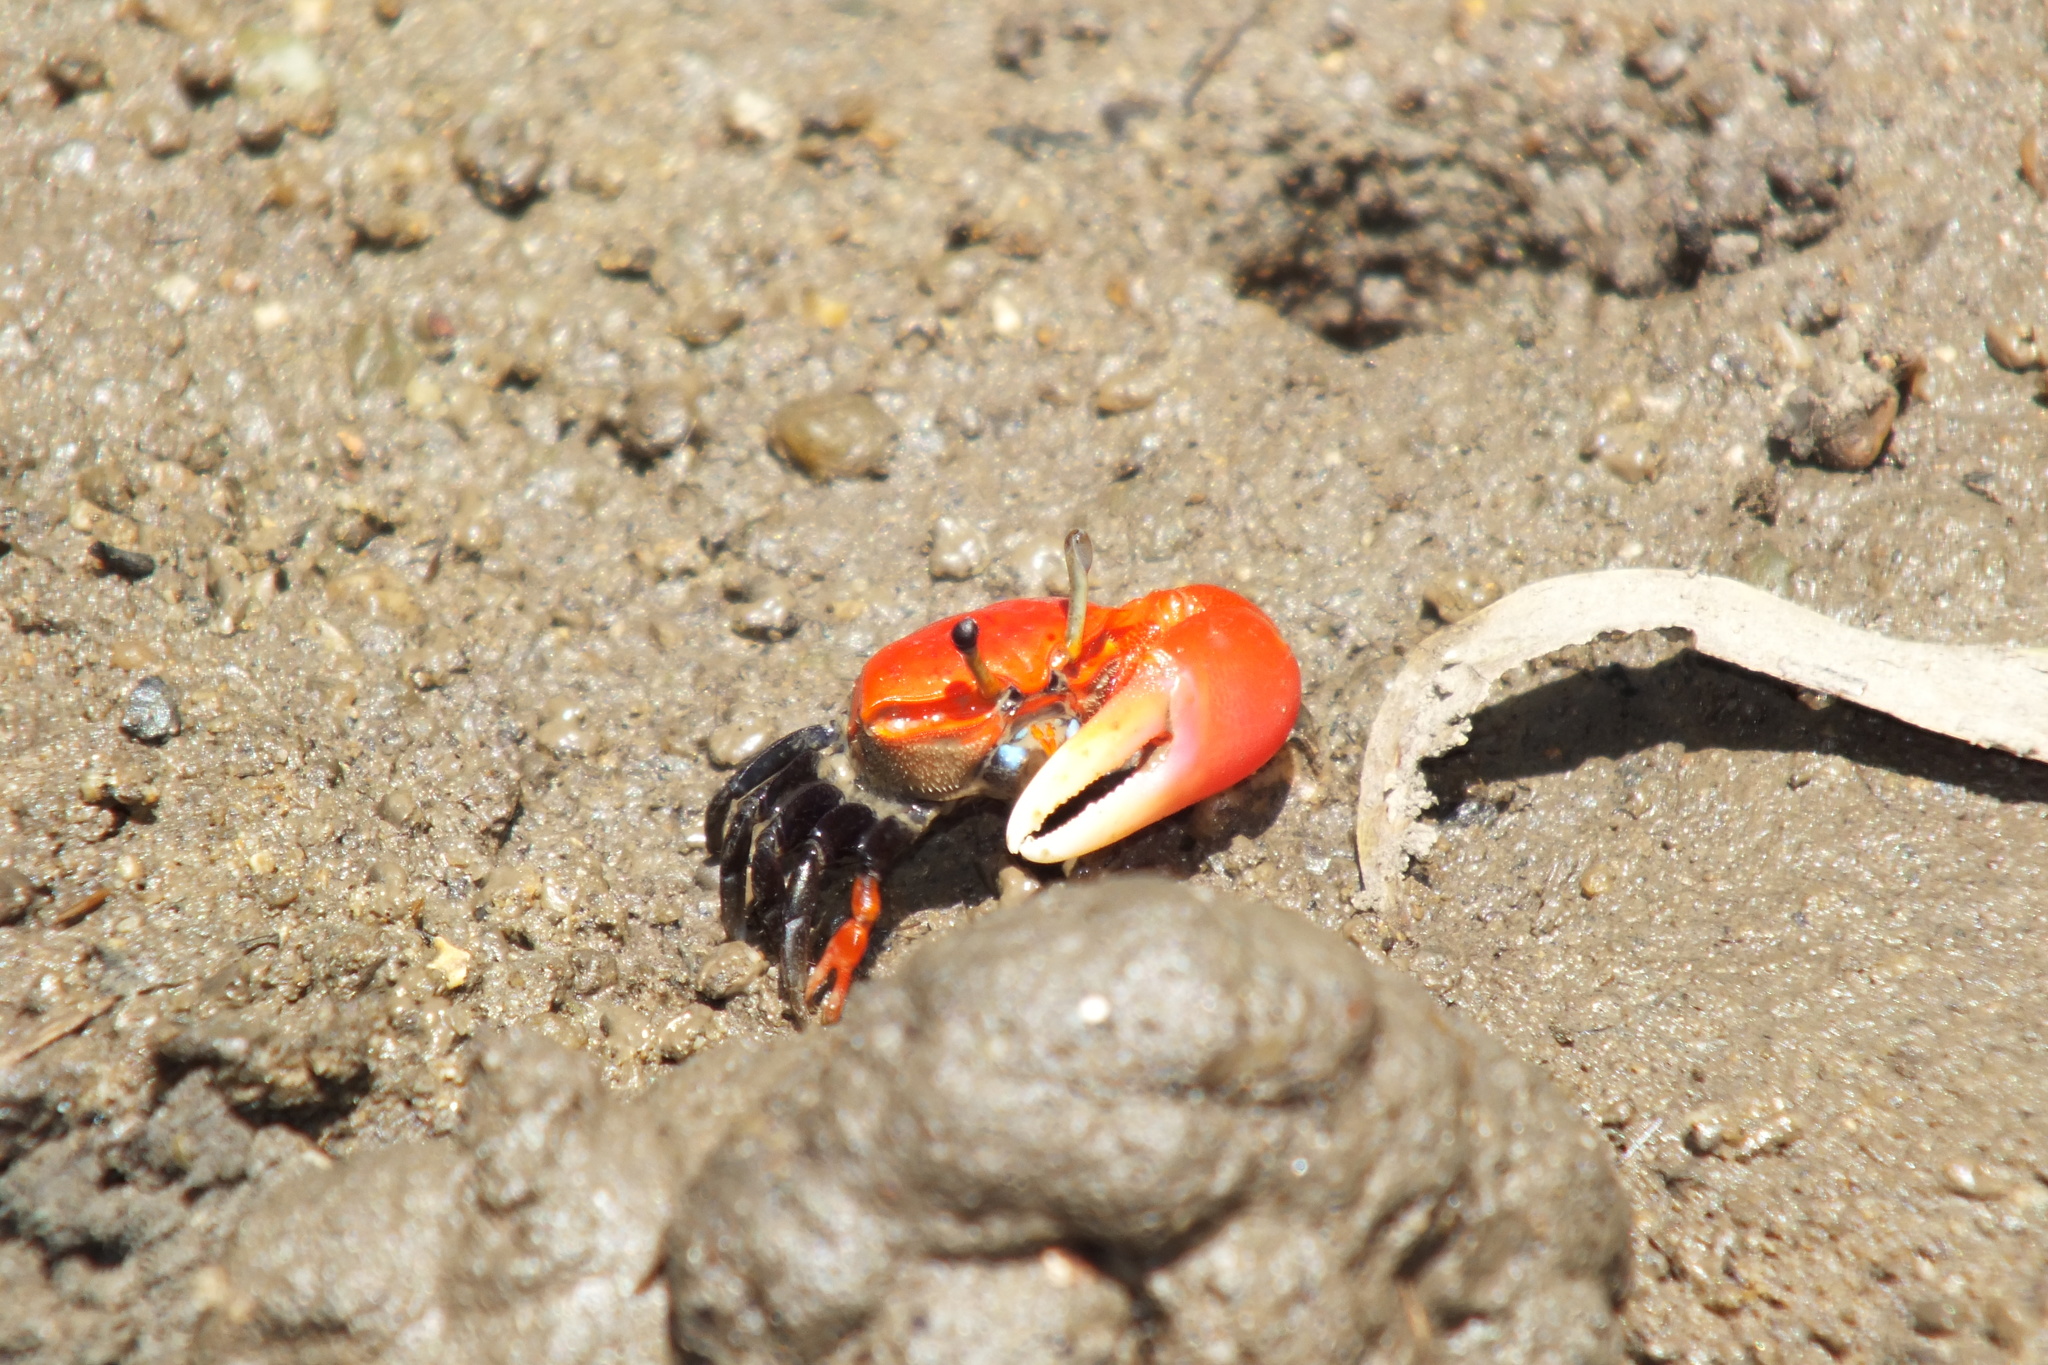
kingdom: Animalia
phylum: Arthropoda
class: Malacostraca
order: Decapoda
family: Ocypodidae
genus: Paraleptuca
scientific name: Paraleptuca crassipes
